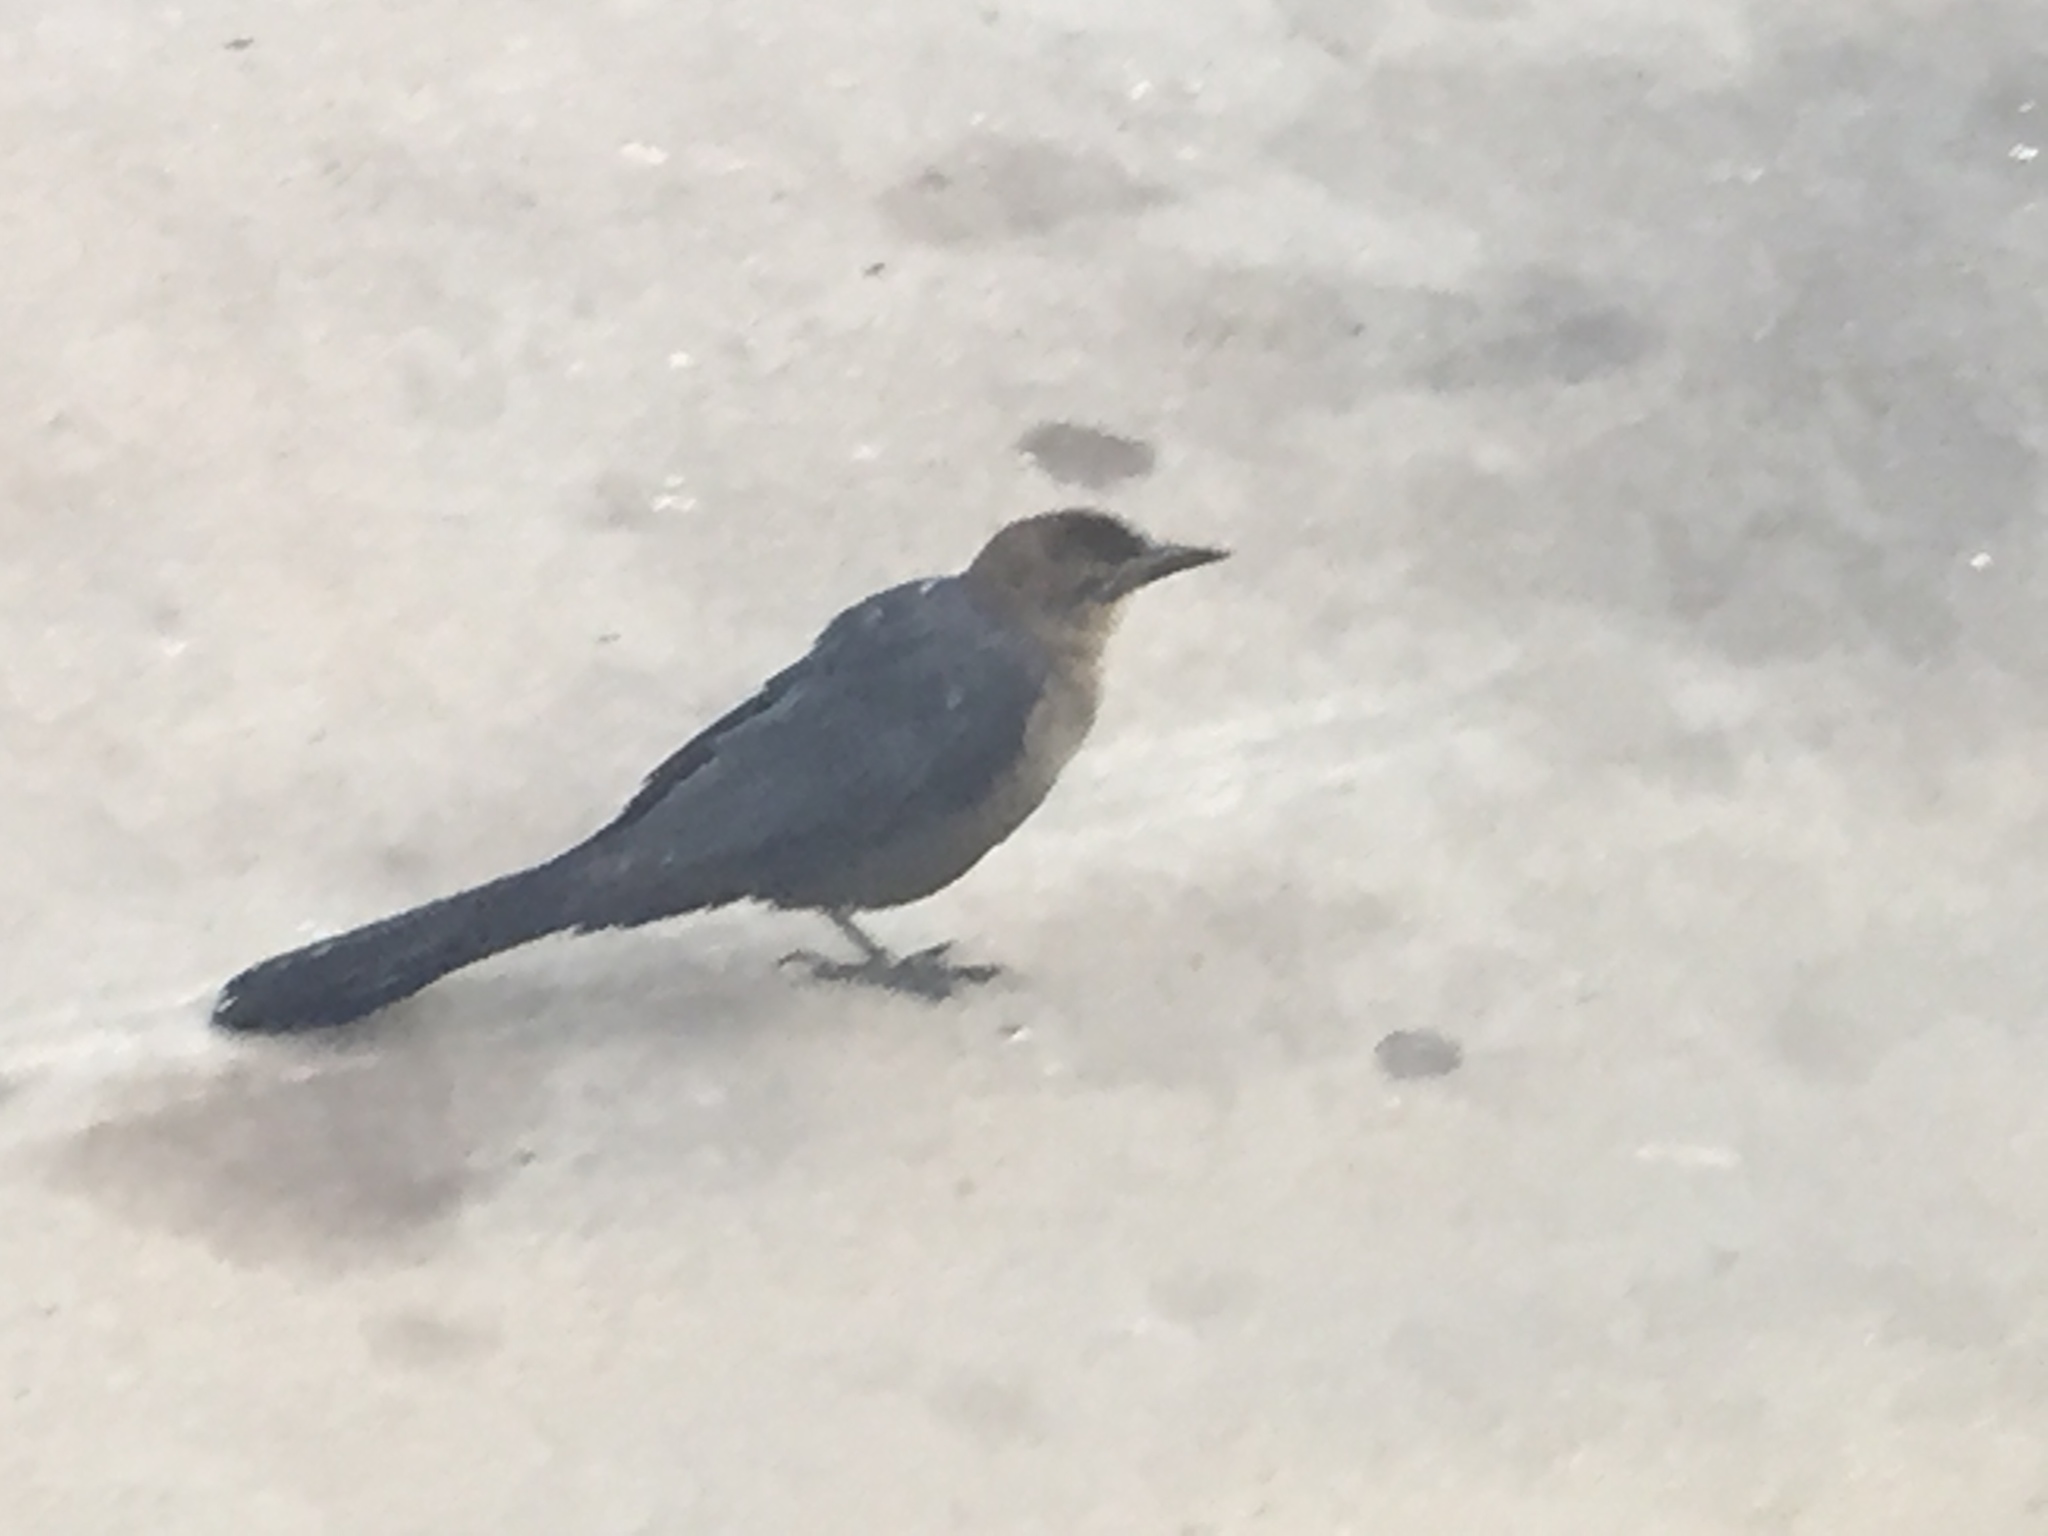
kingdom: Animalia
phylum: Chordata
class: Aves
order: Passeriformes
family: Icteridae
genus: Quiscalus
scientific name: Quiscalus mexicanus
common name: Great-tailed grackle
